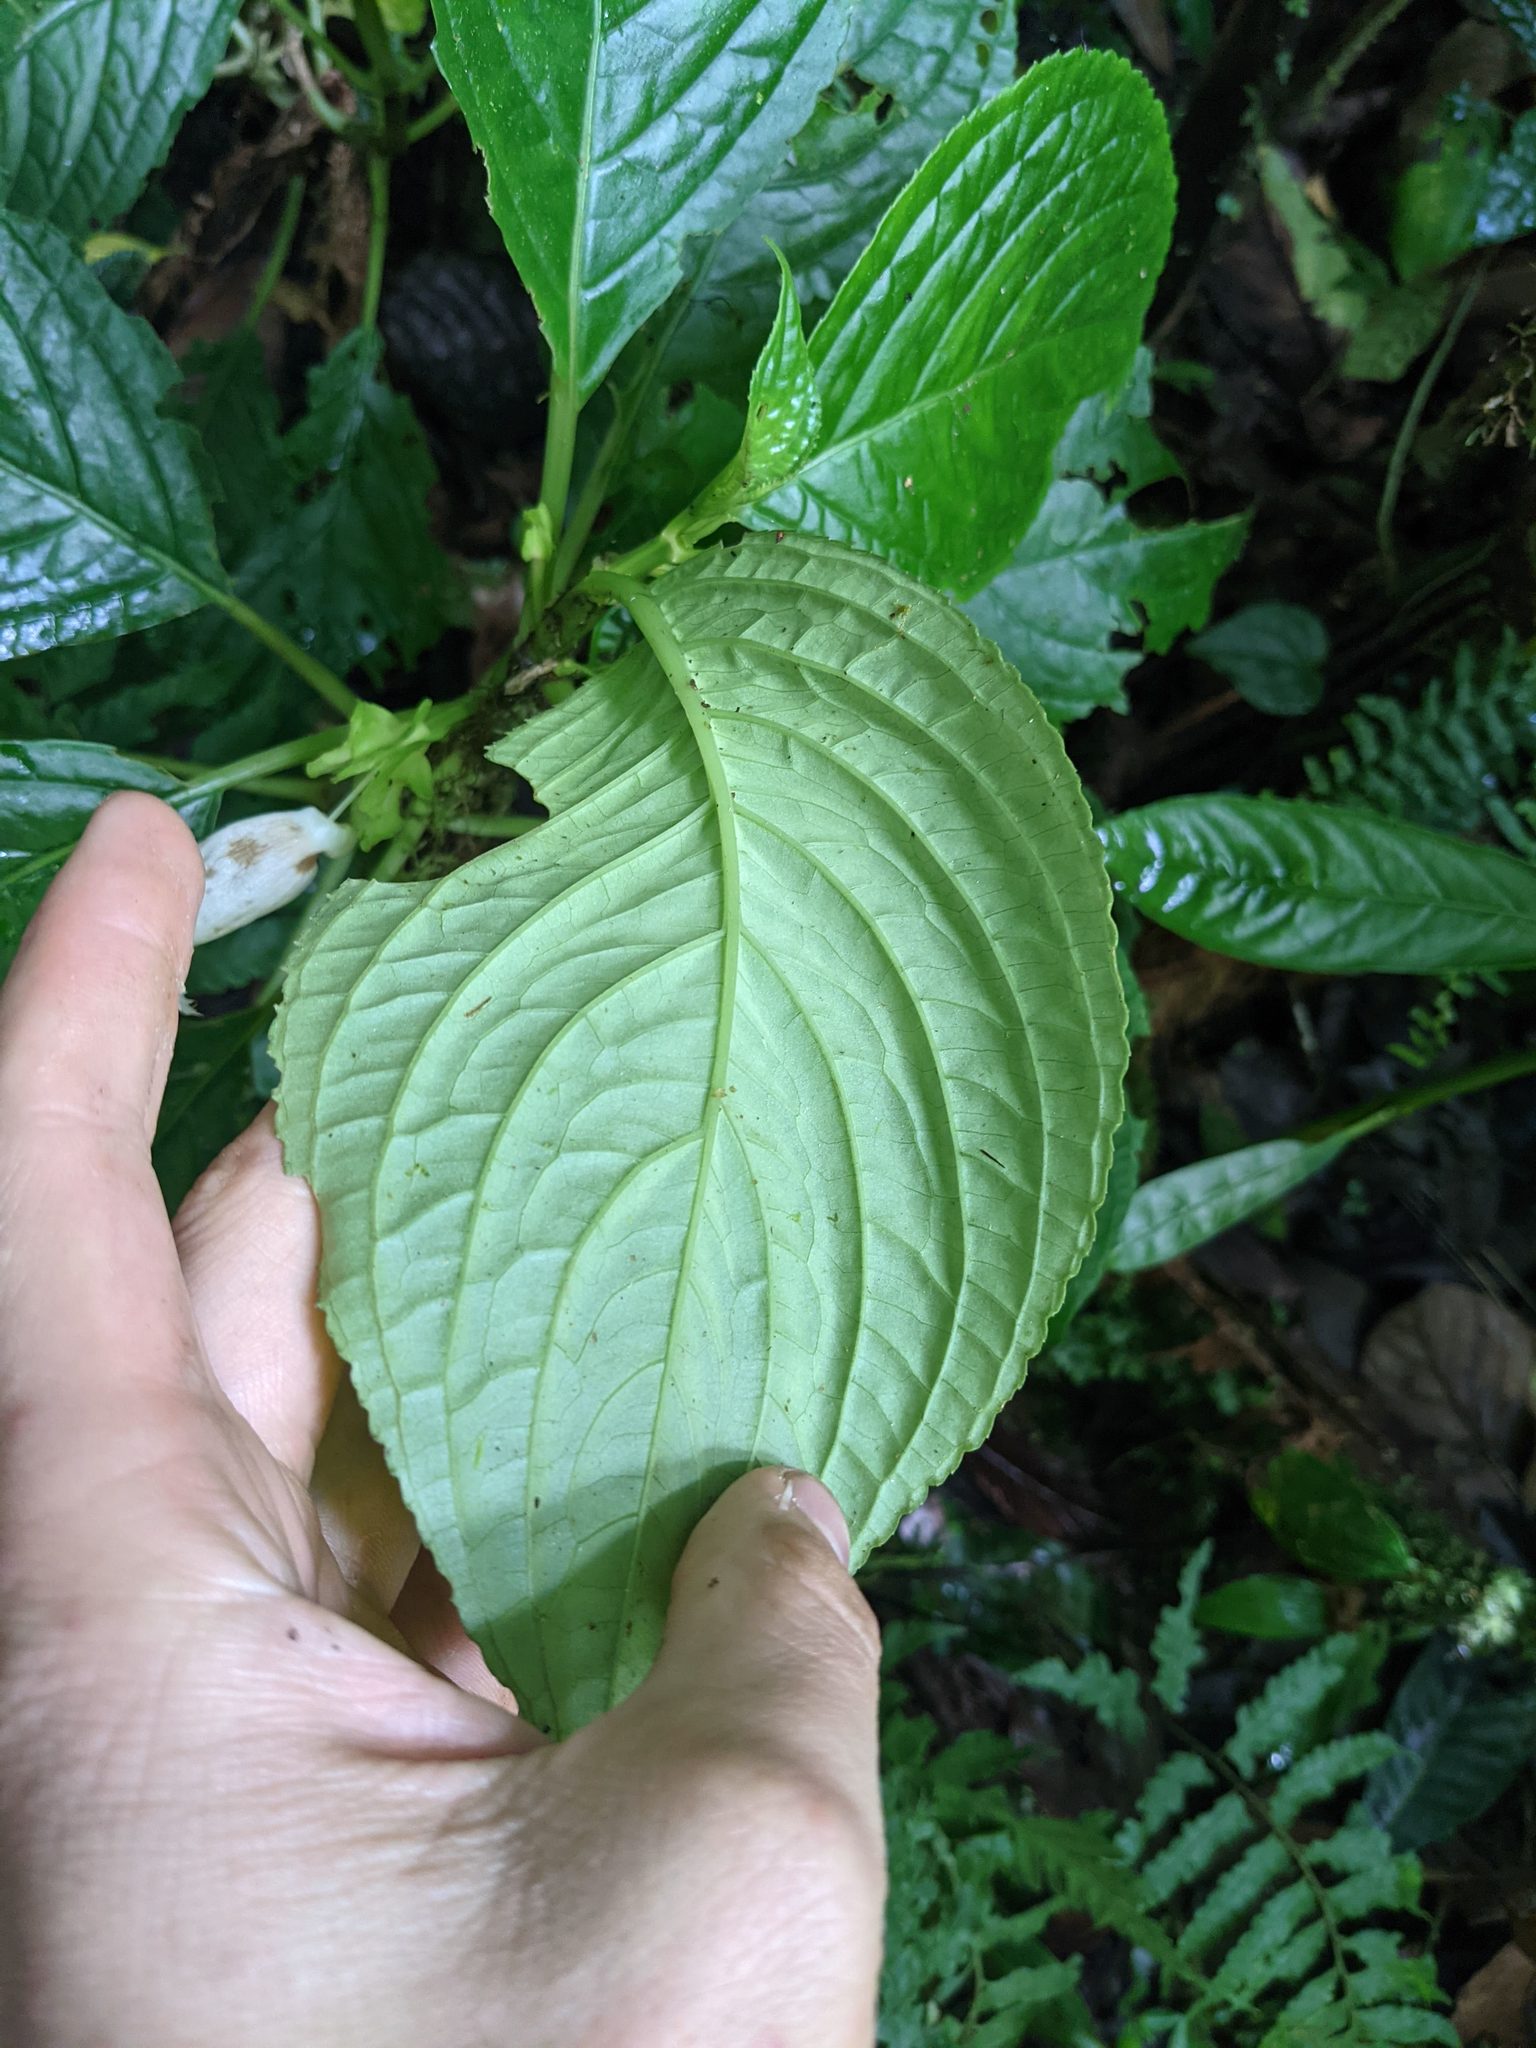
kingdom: Plantae
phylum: Tracheophyta
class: Magnoliopsida
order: Lamiales
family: Gesneriaceae
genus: Drymonia
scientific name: Drymonia lanceolata
